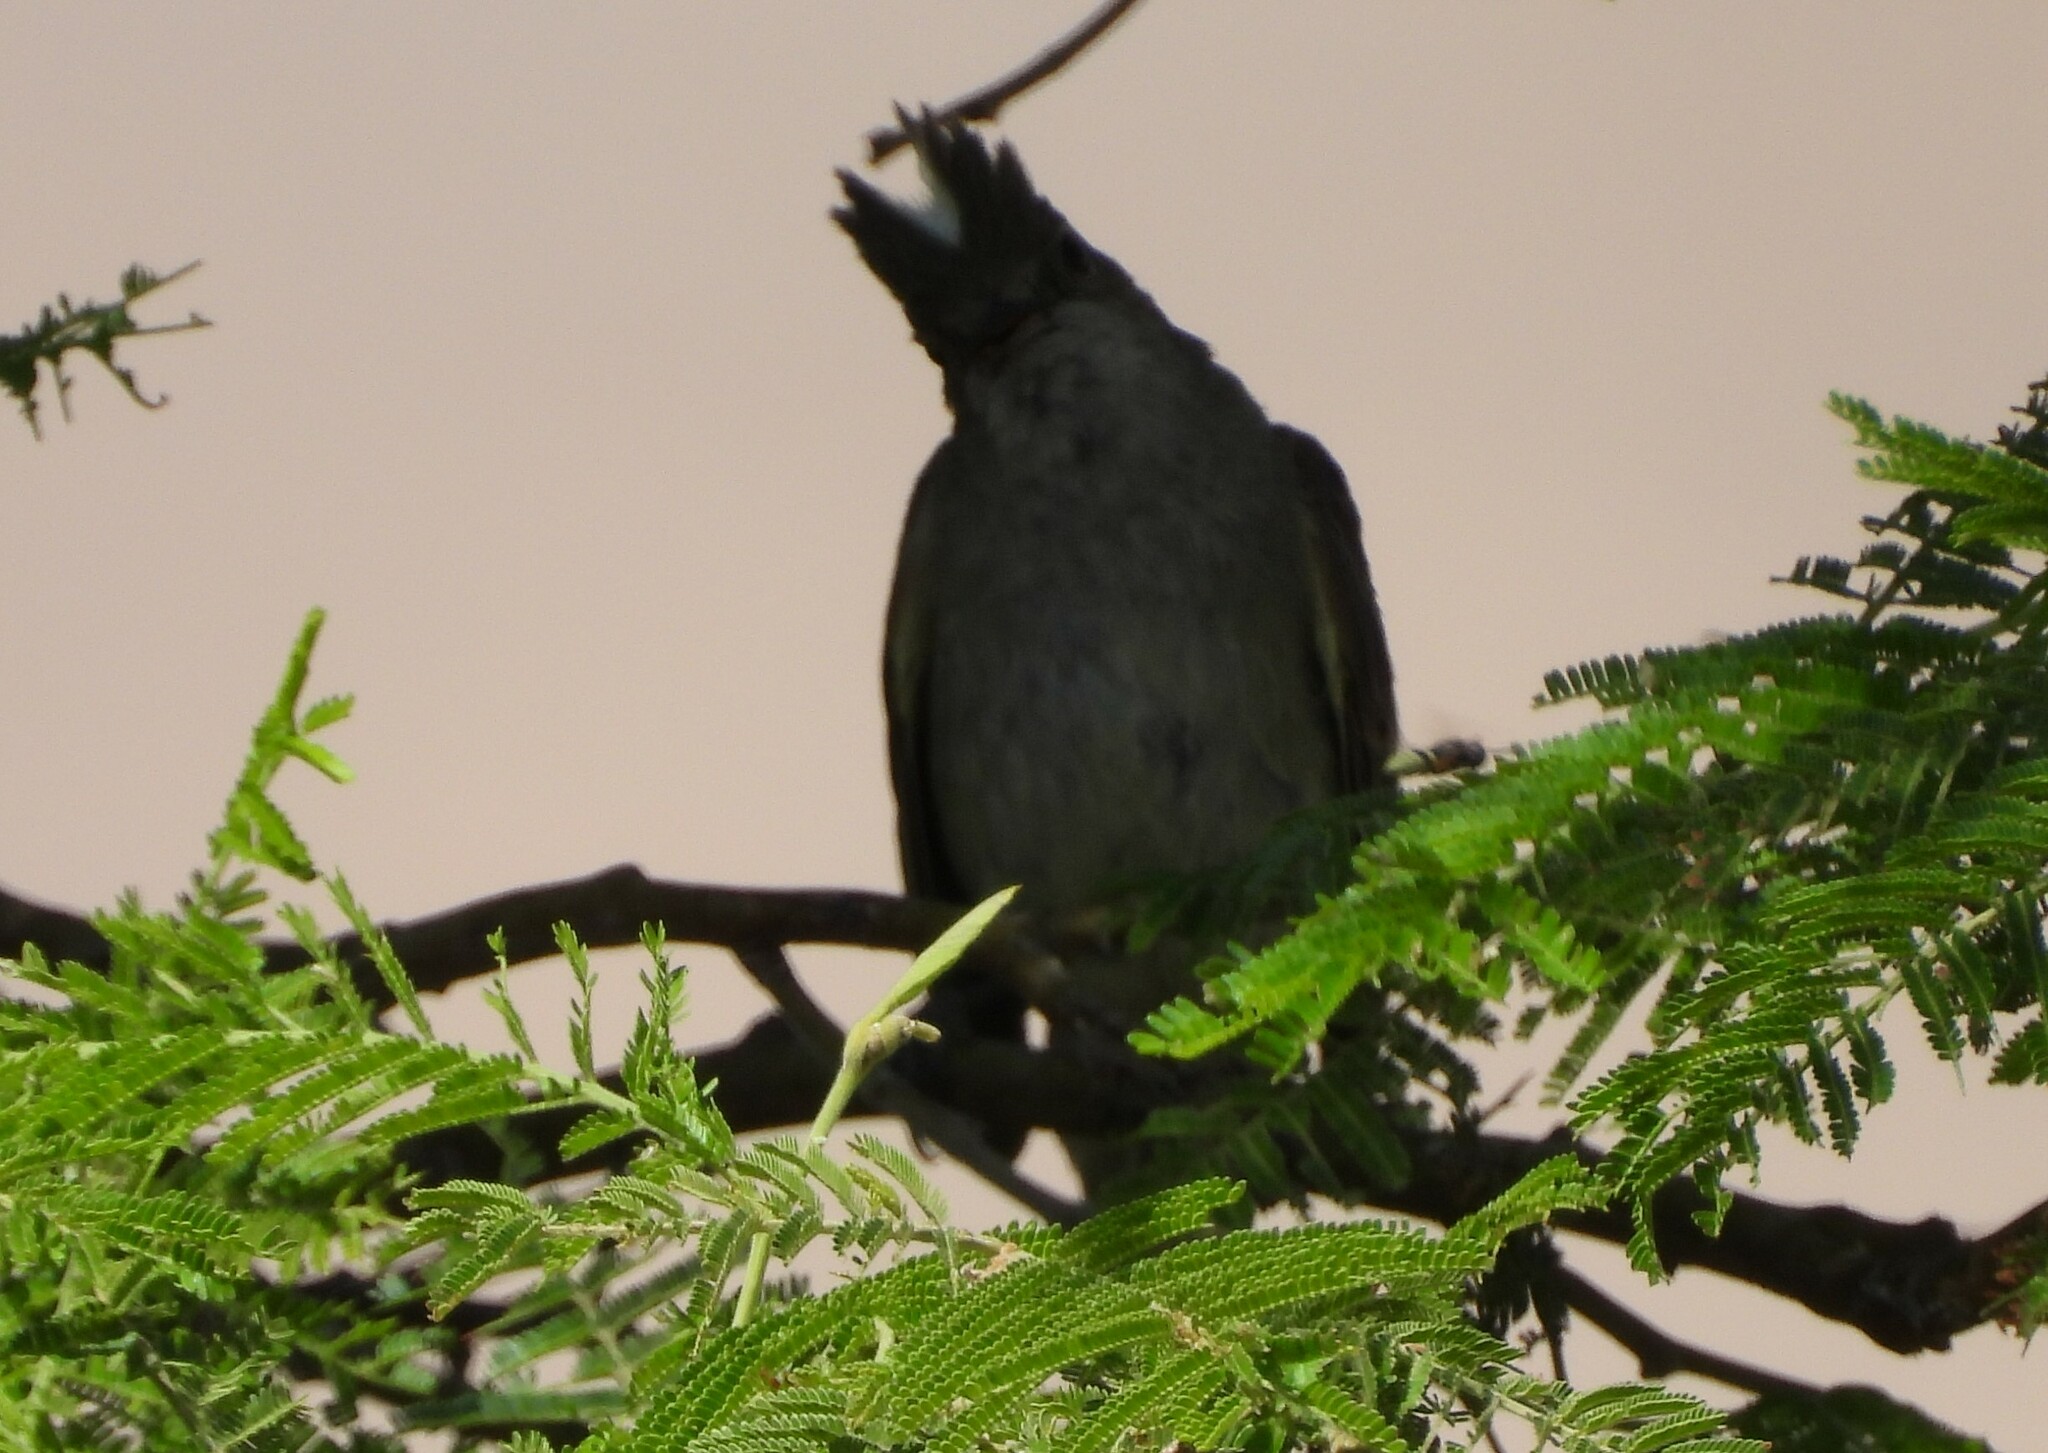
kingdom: Animalia
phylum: Chordata
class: Aves
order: Passeriformes
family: Tyrannidae
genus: Elaenia
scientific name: Elaenia albiceps
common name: White-crested elaenia
